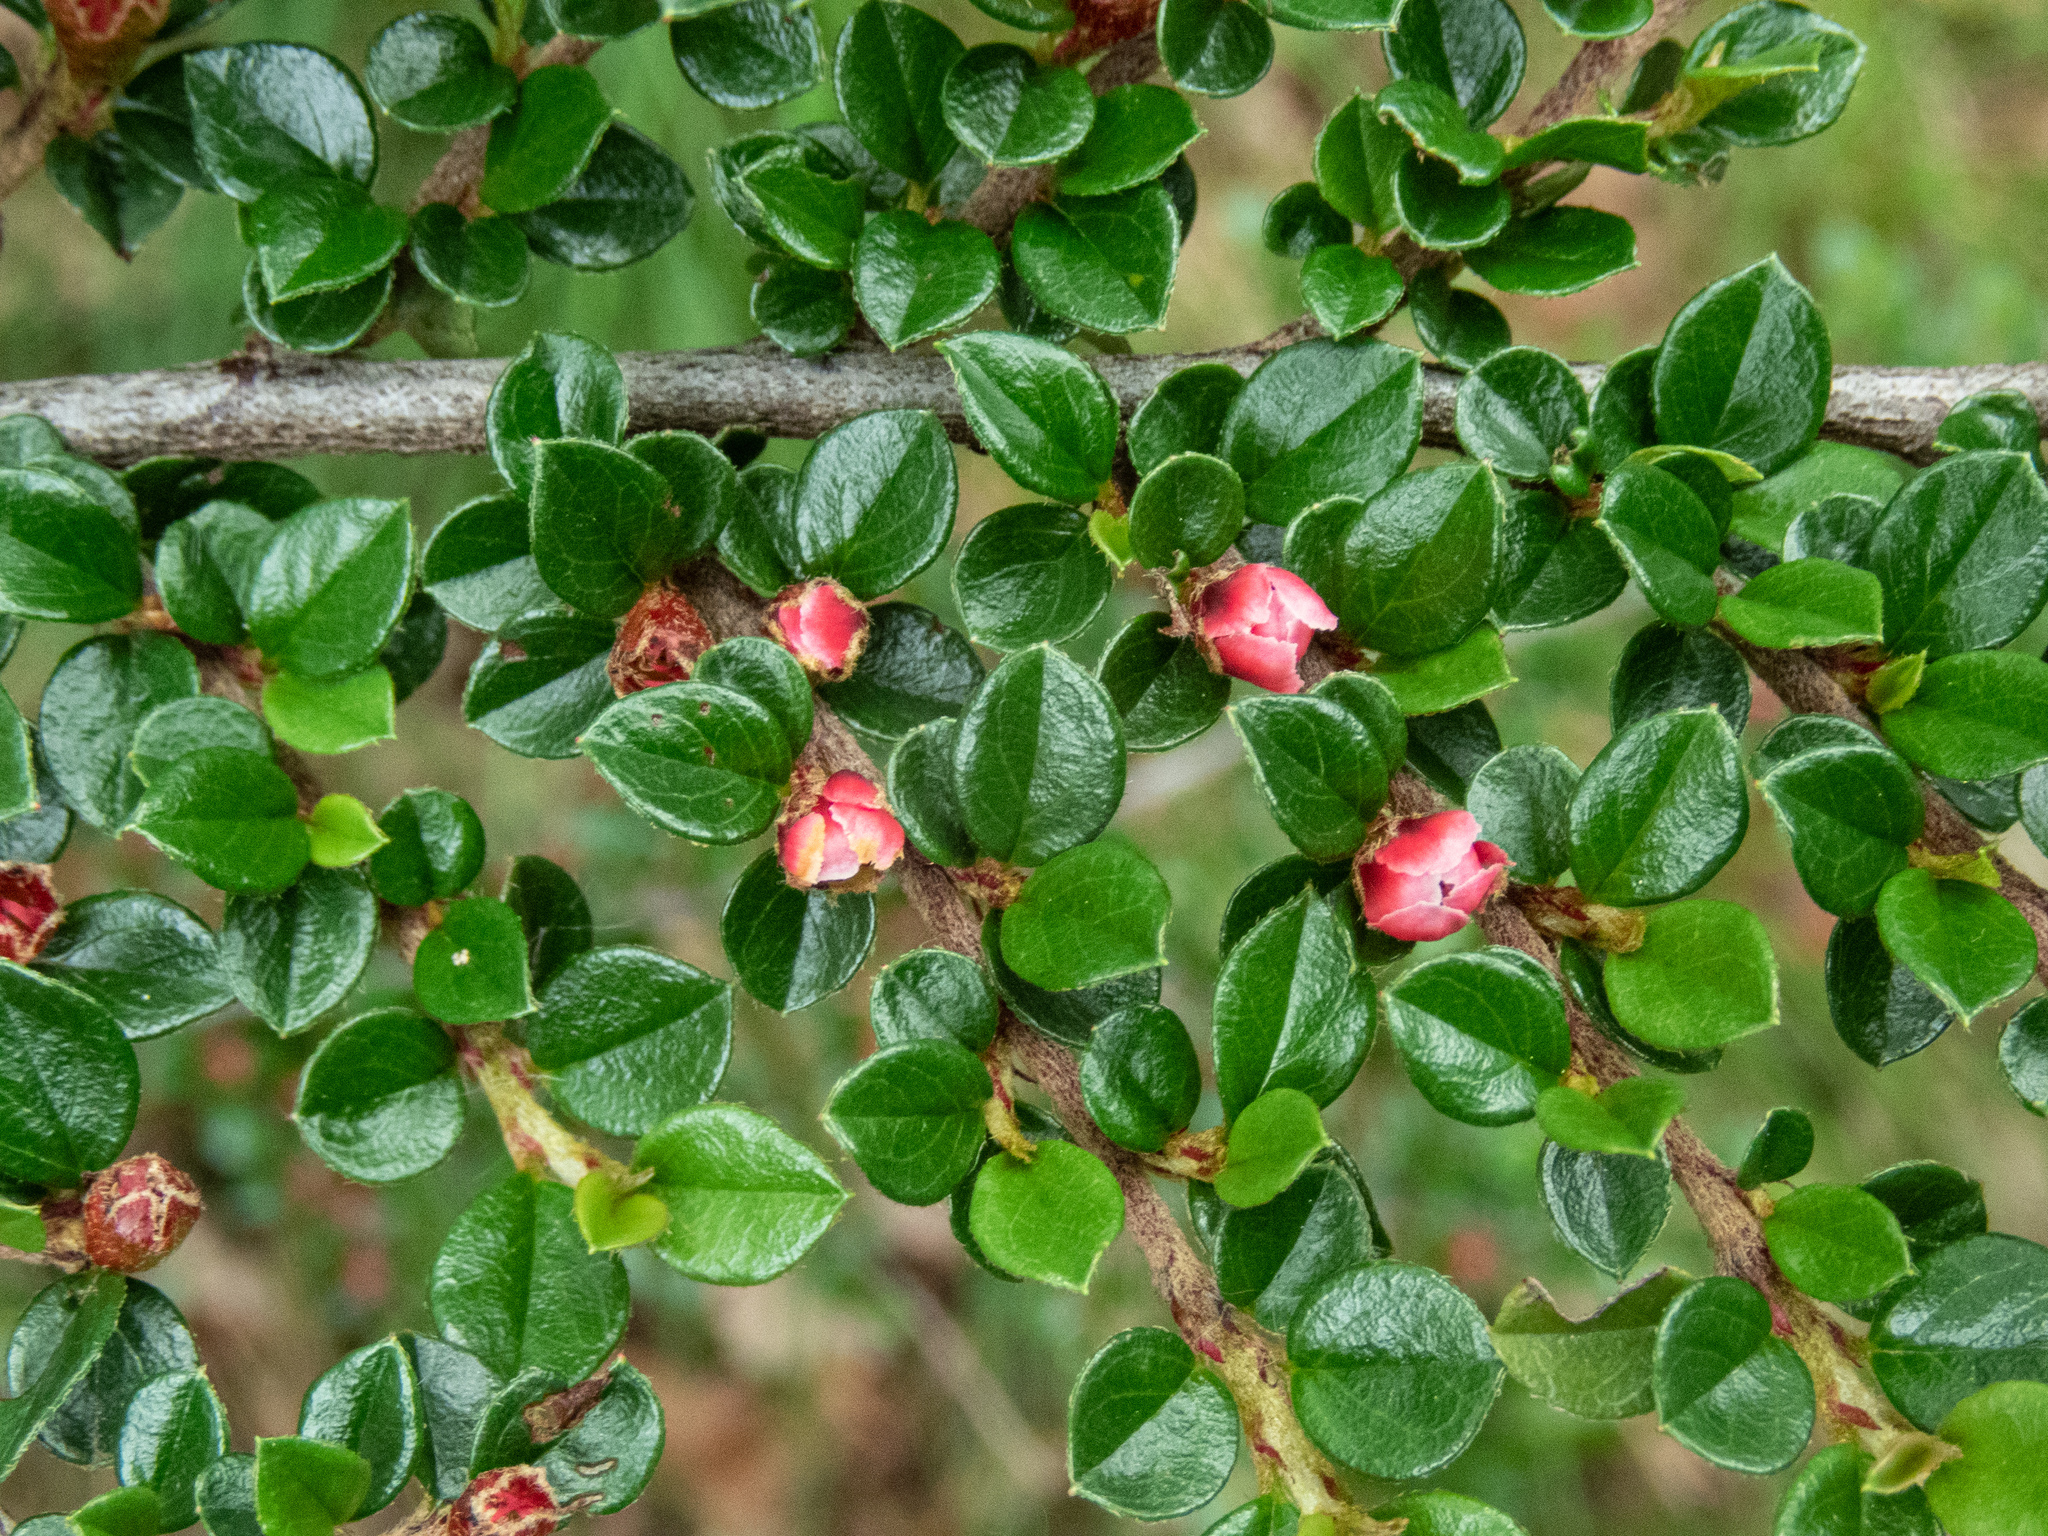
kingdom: Plantae
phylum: Tracheophyta
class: Magnoliopsida
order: Rosales
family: Rosaceae
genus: Cotoneaster
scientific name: Cotoneaster horizontalis
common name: Wall cotoneaster
